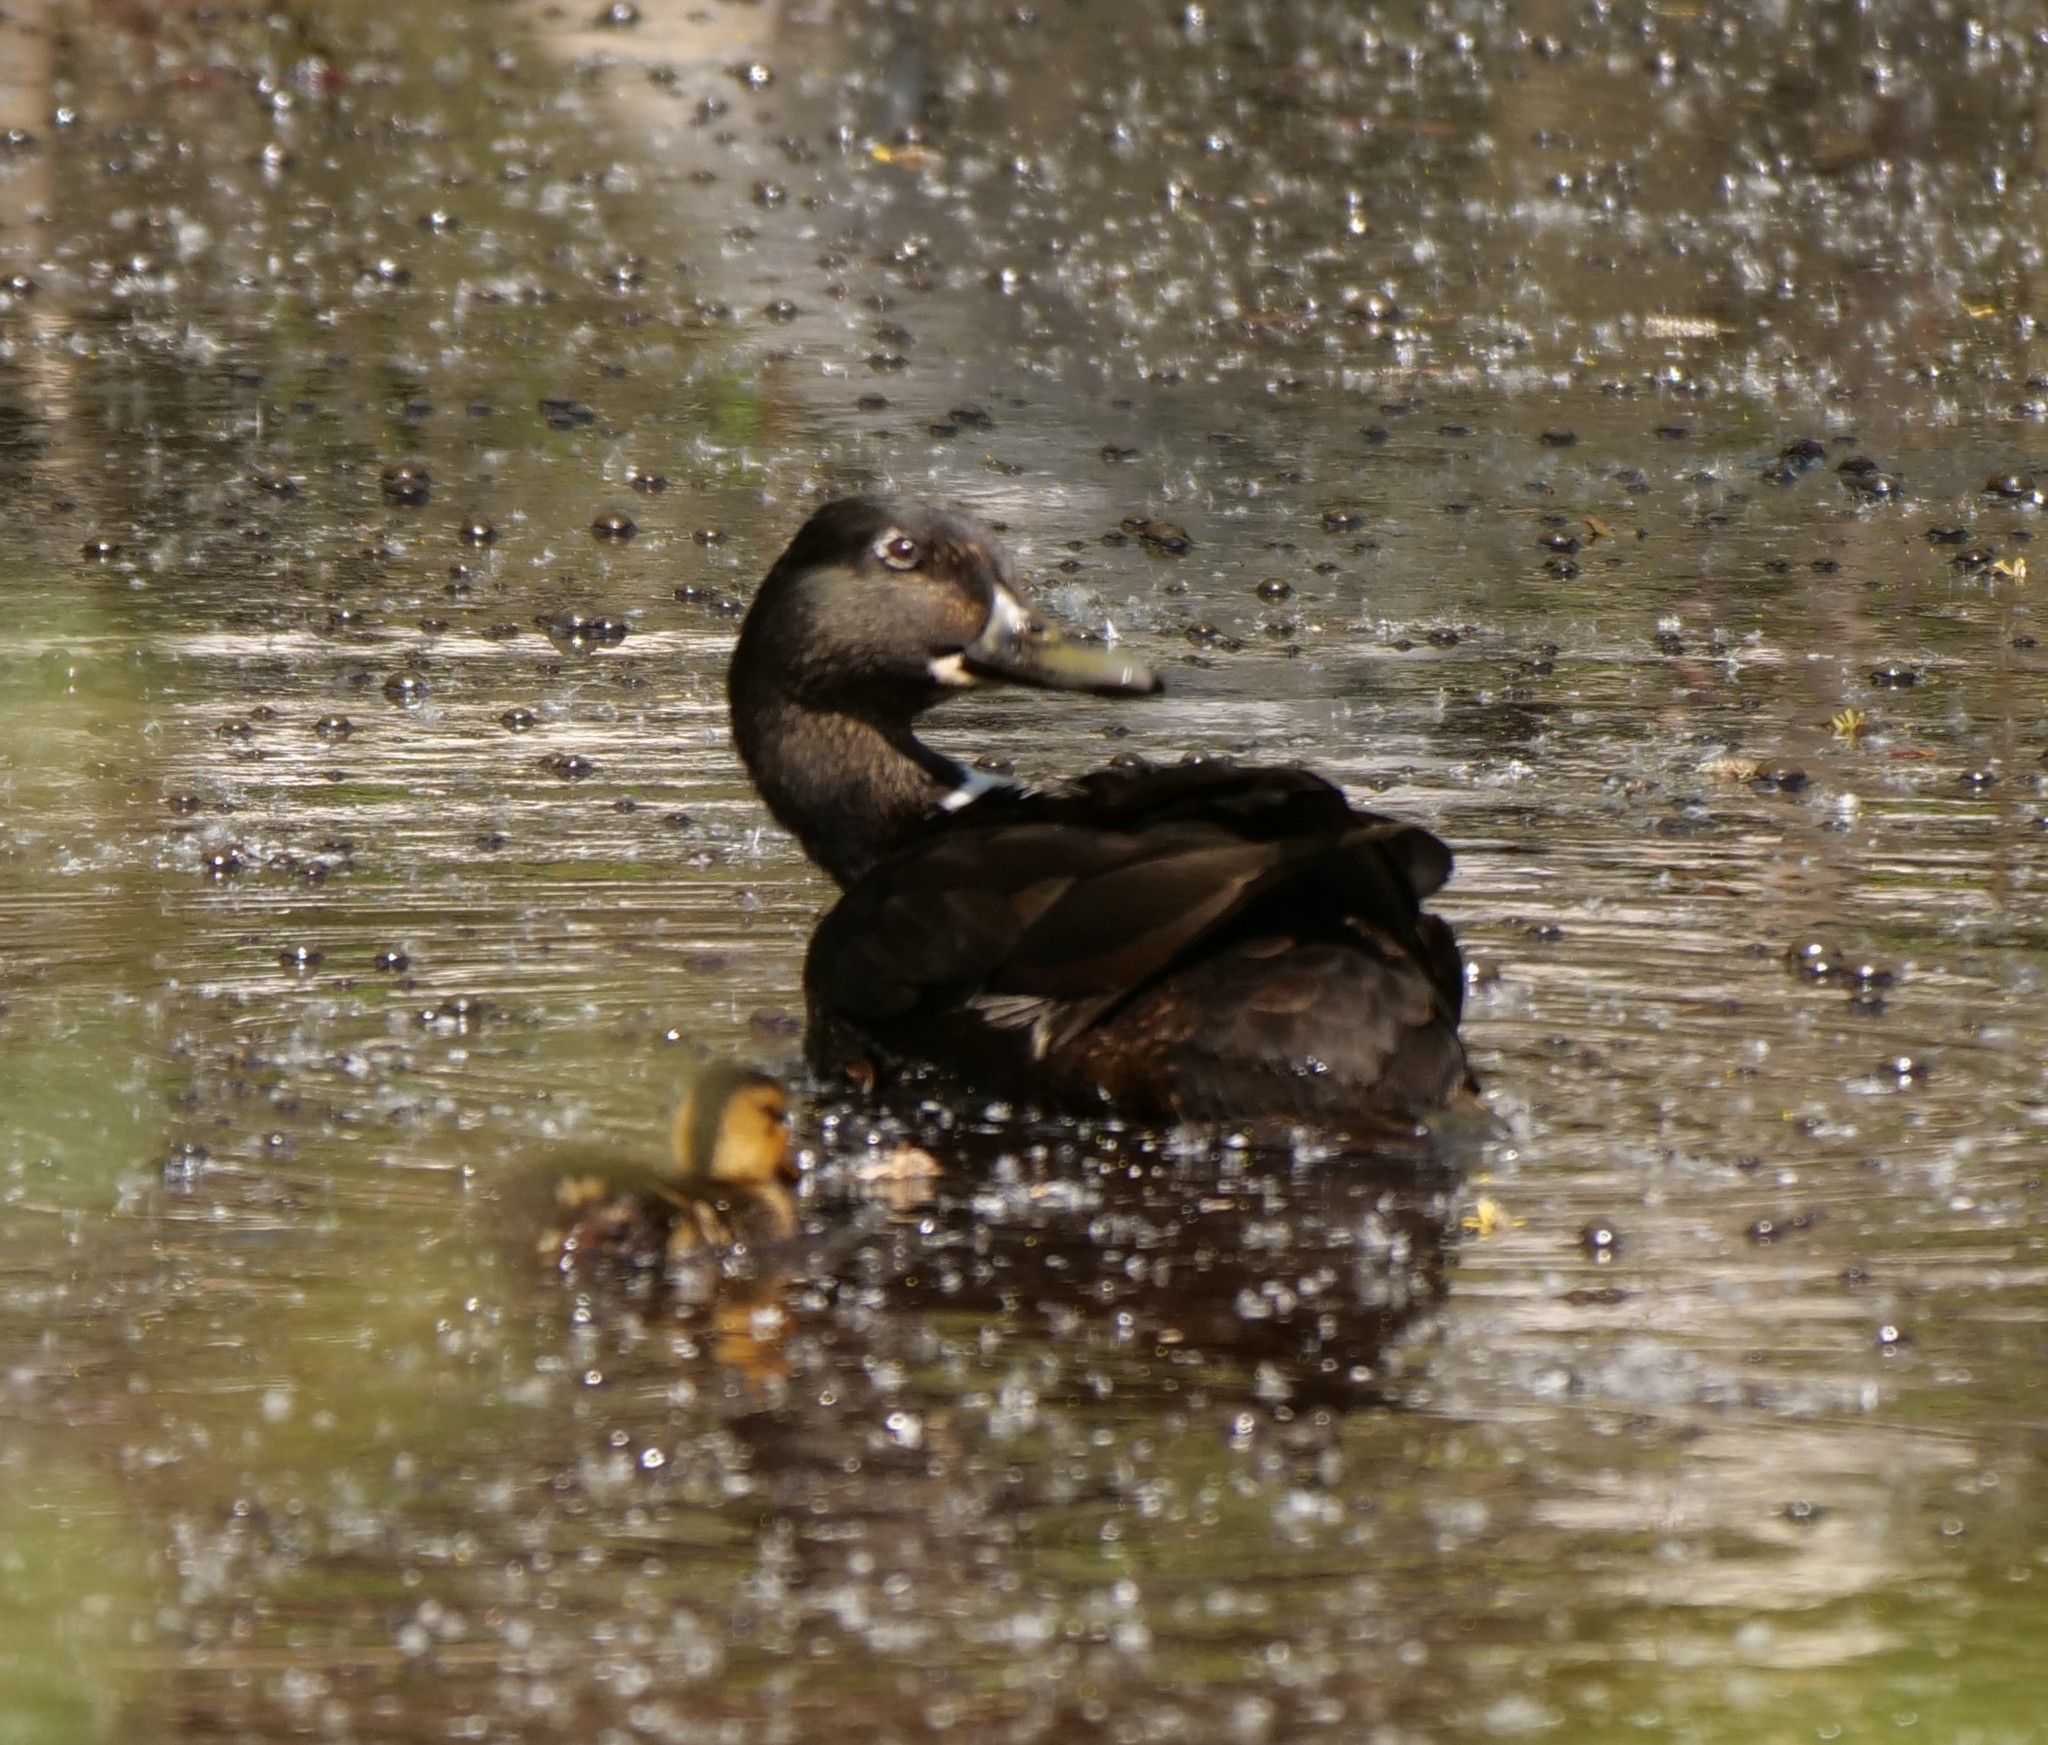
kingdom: Animalia
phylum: Chordata
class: Aves
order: Anseriformes
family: Anatidae
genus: Anas
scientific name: Anas platyrhynchos
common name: Mallard
